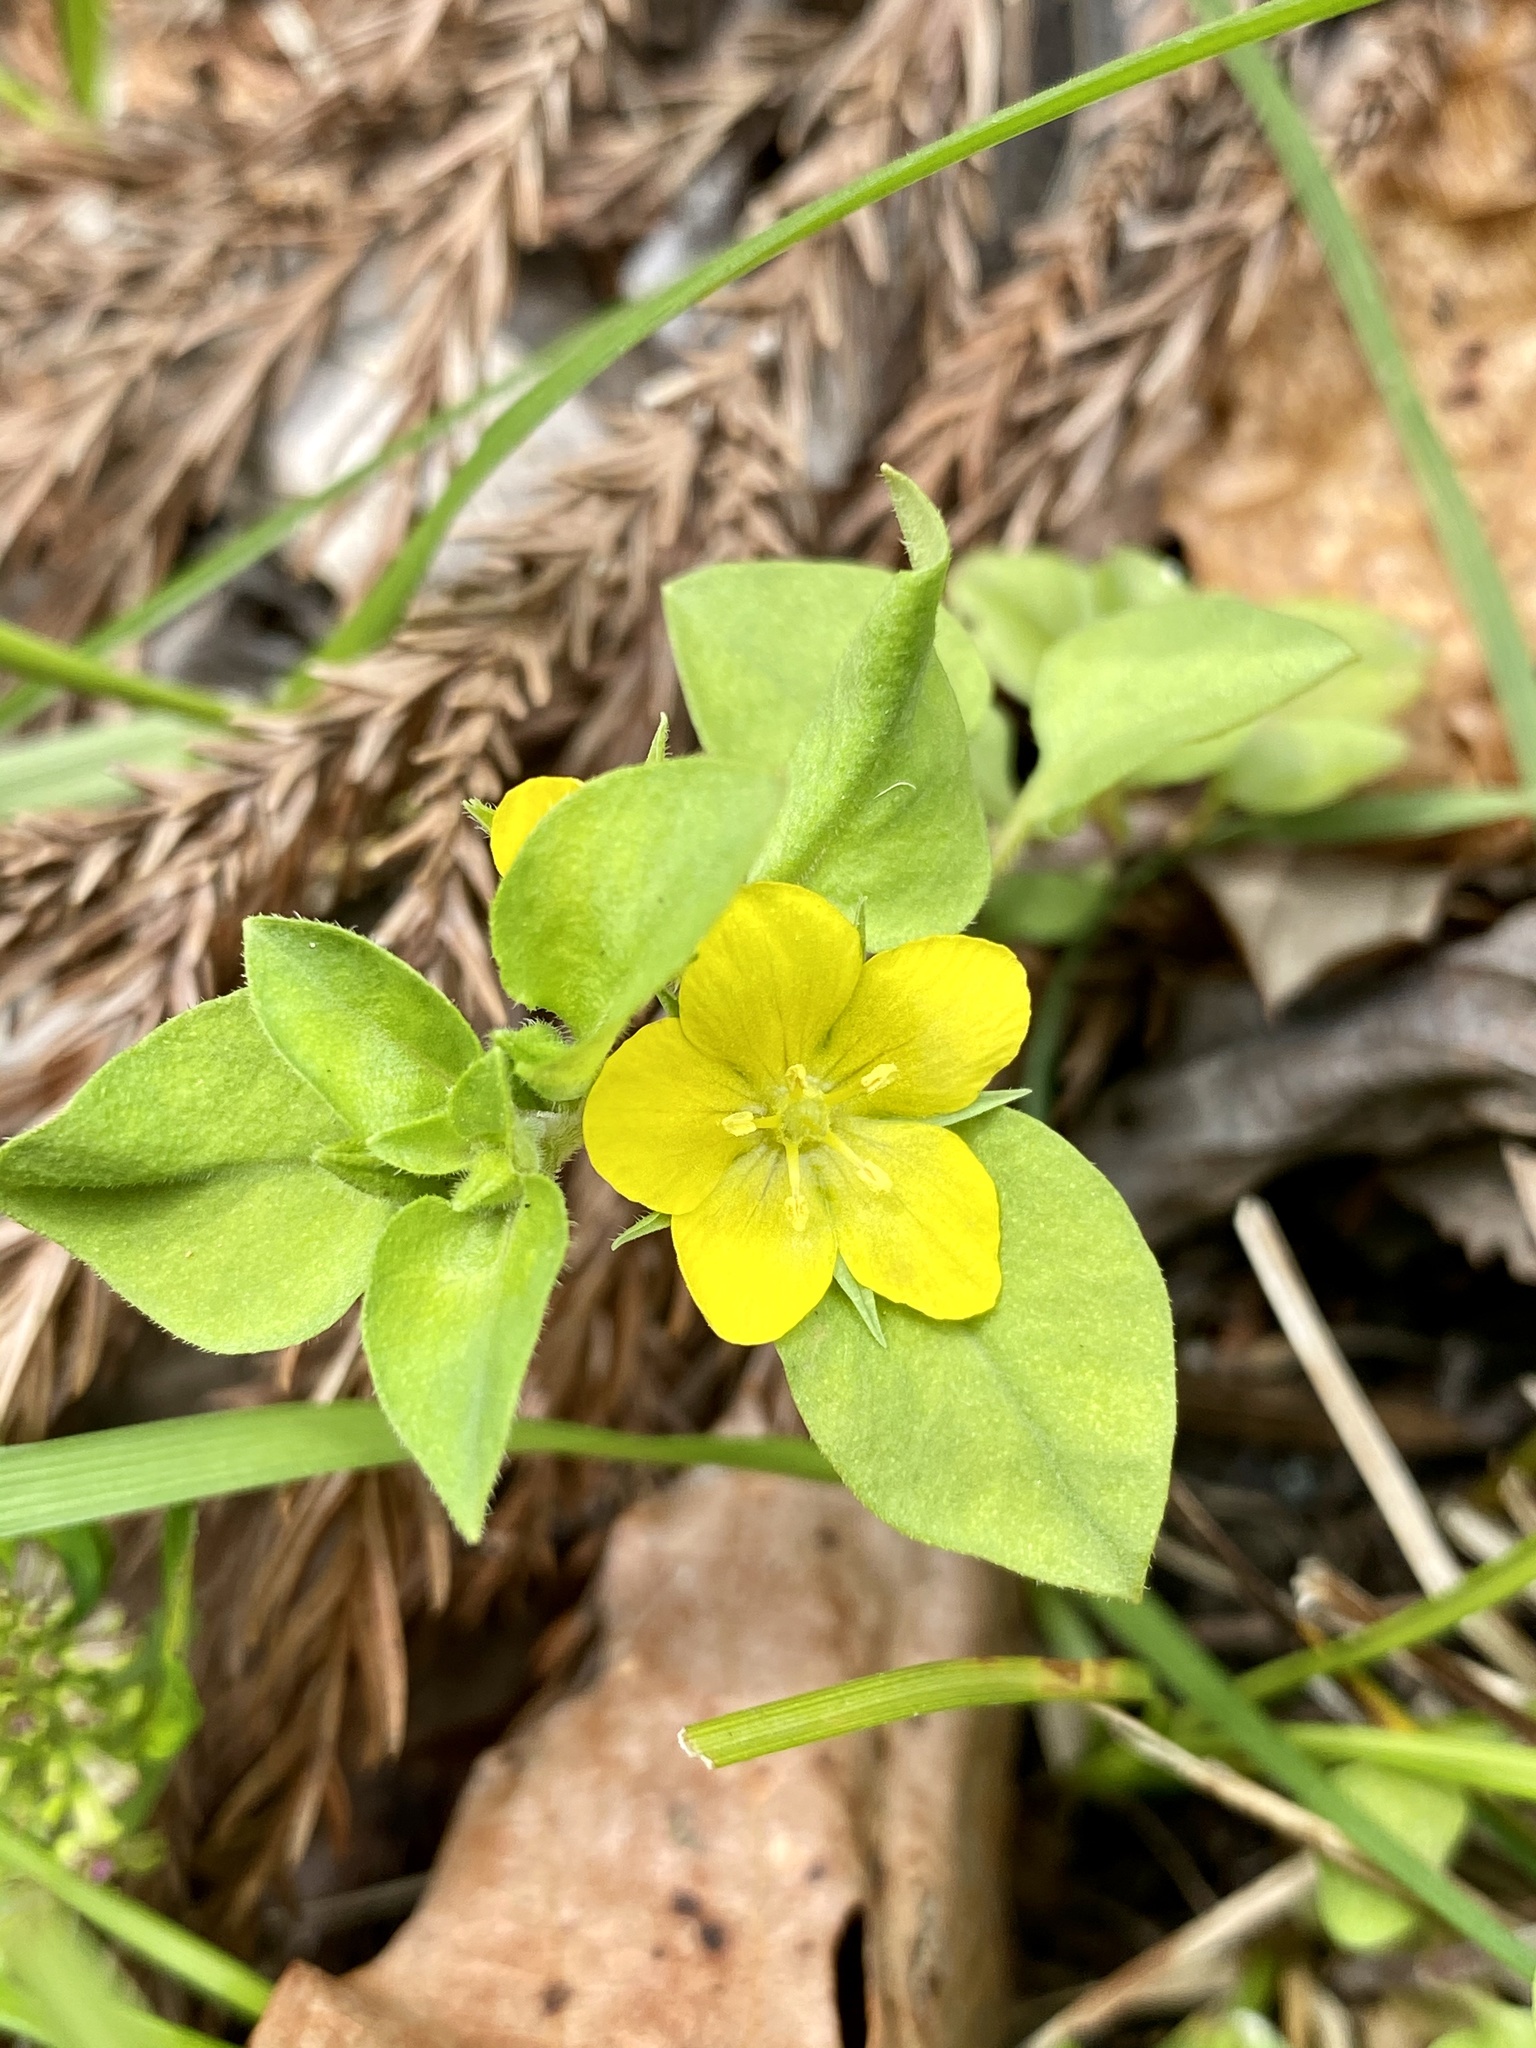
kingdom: Plantae
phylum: Tracheophyta
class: Magnoliopsida
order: Ericales
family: Primulaceae
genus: Lysimachia
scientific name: Lysimachia japonica
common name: Japanese yellow loosestrife
